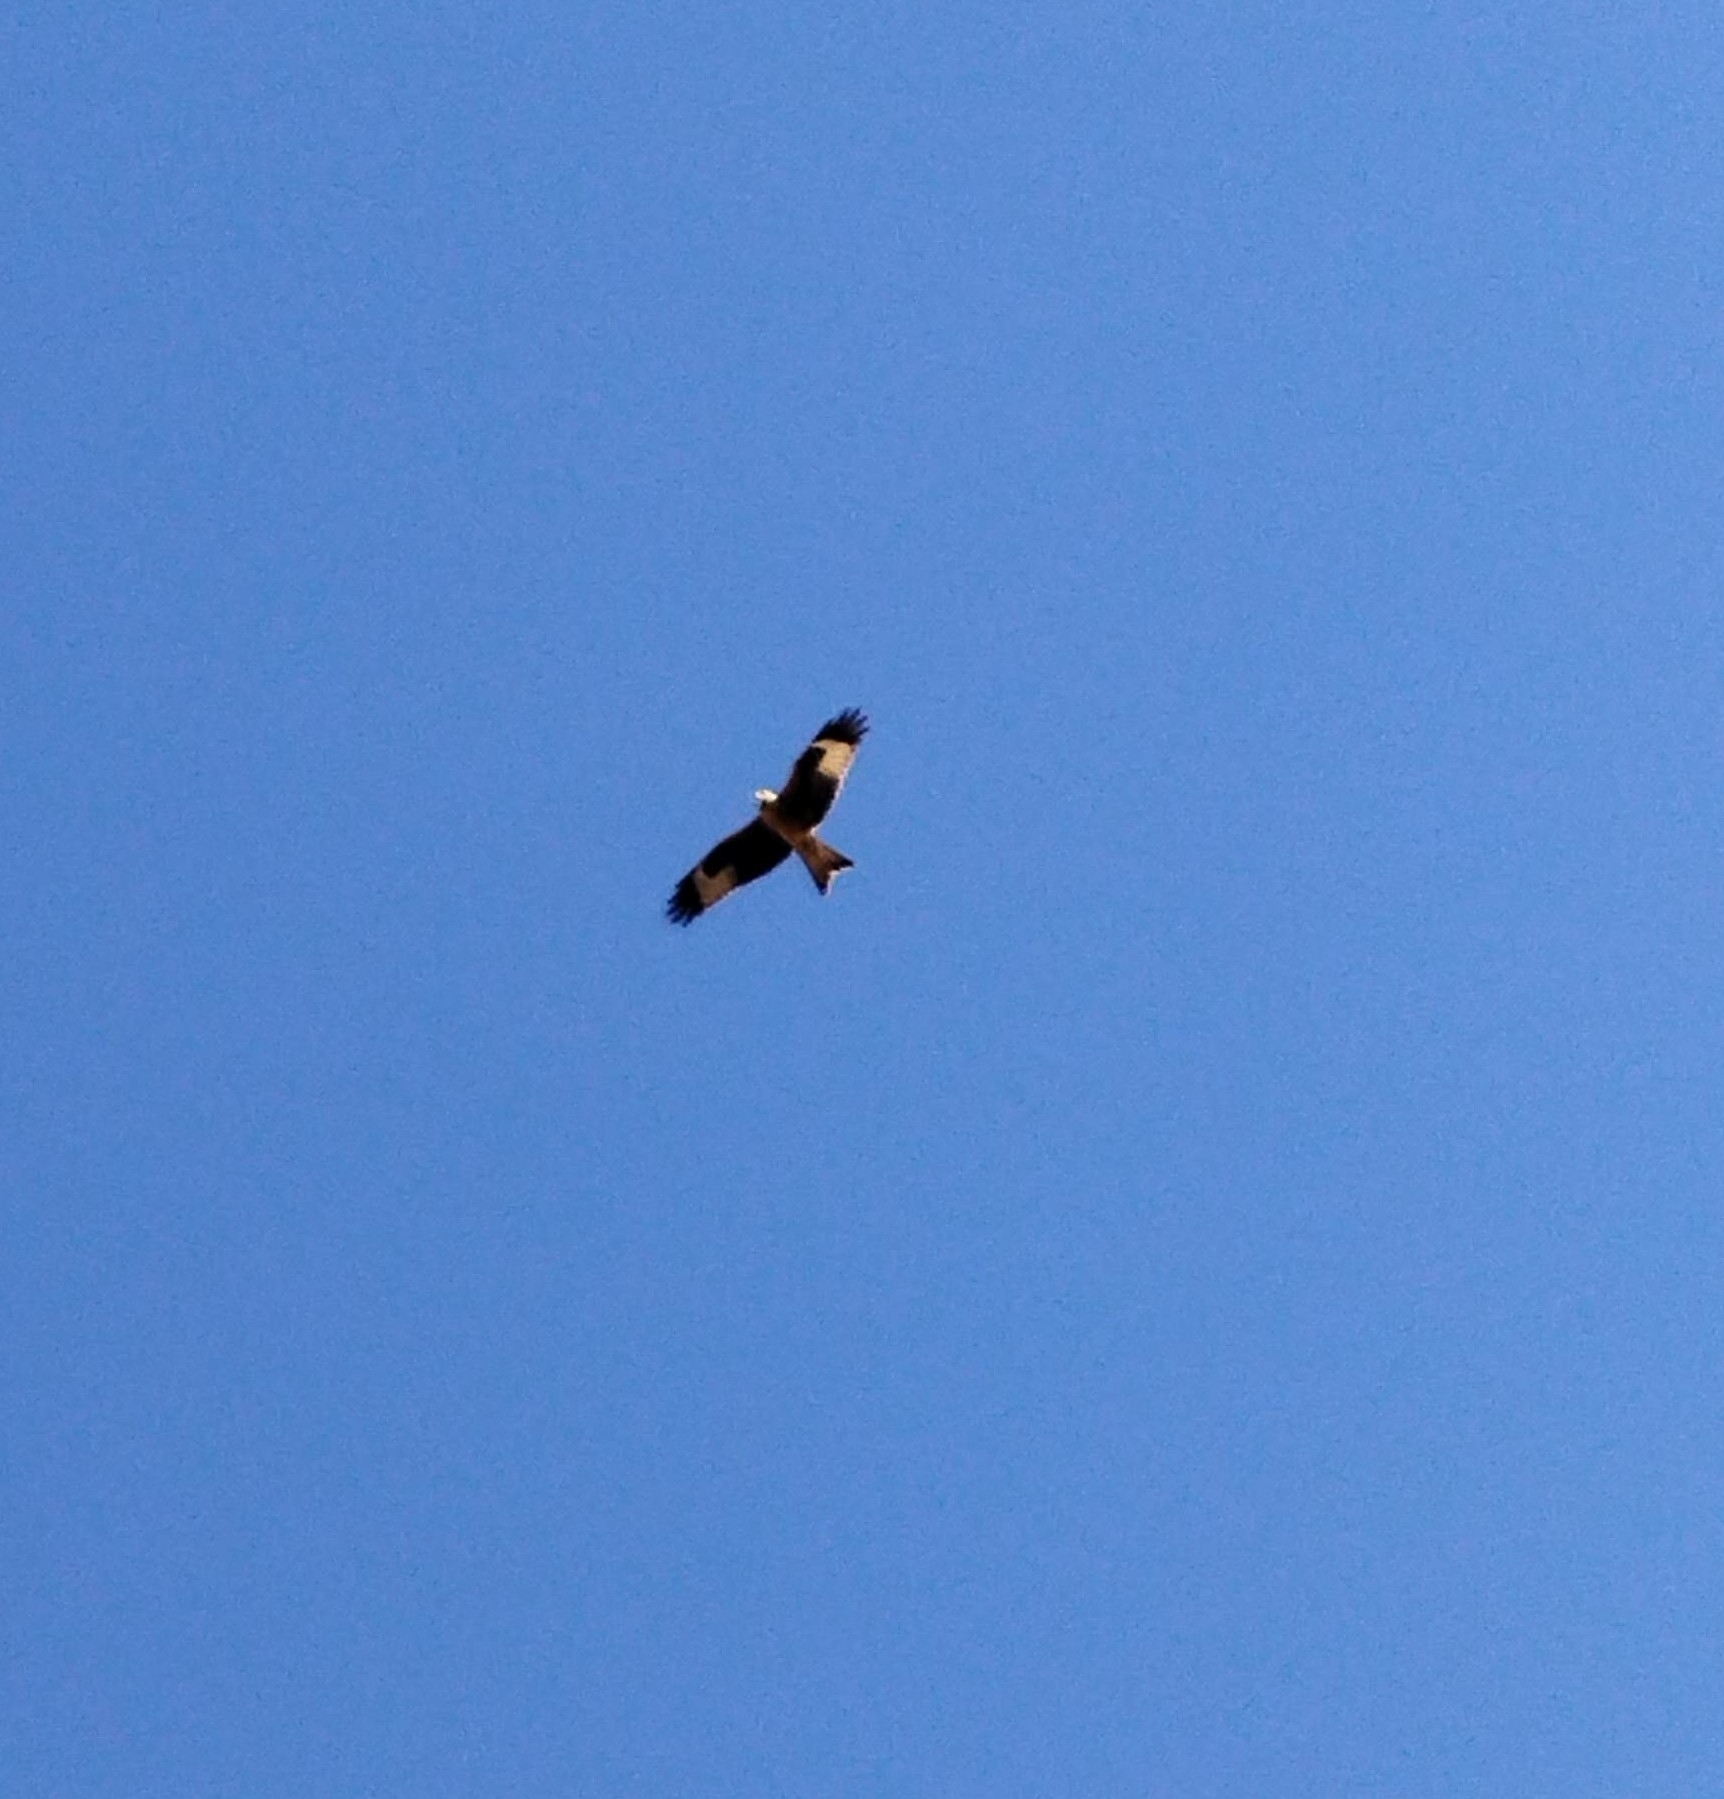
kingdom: Animalia
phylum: Chordata
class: Aves
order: Accipitriformes
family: Accipitridae
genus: Milvus
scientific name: Milvus milvus
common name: Red kite
